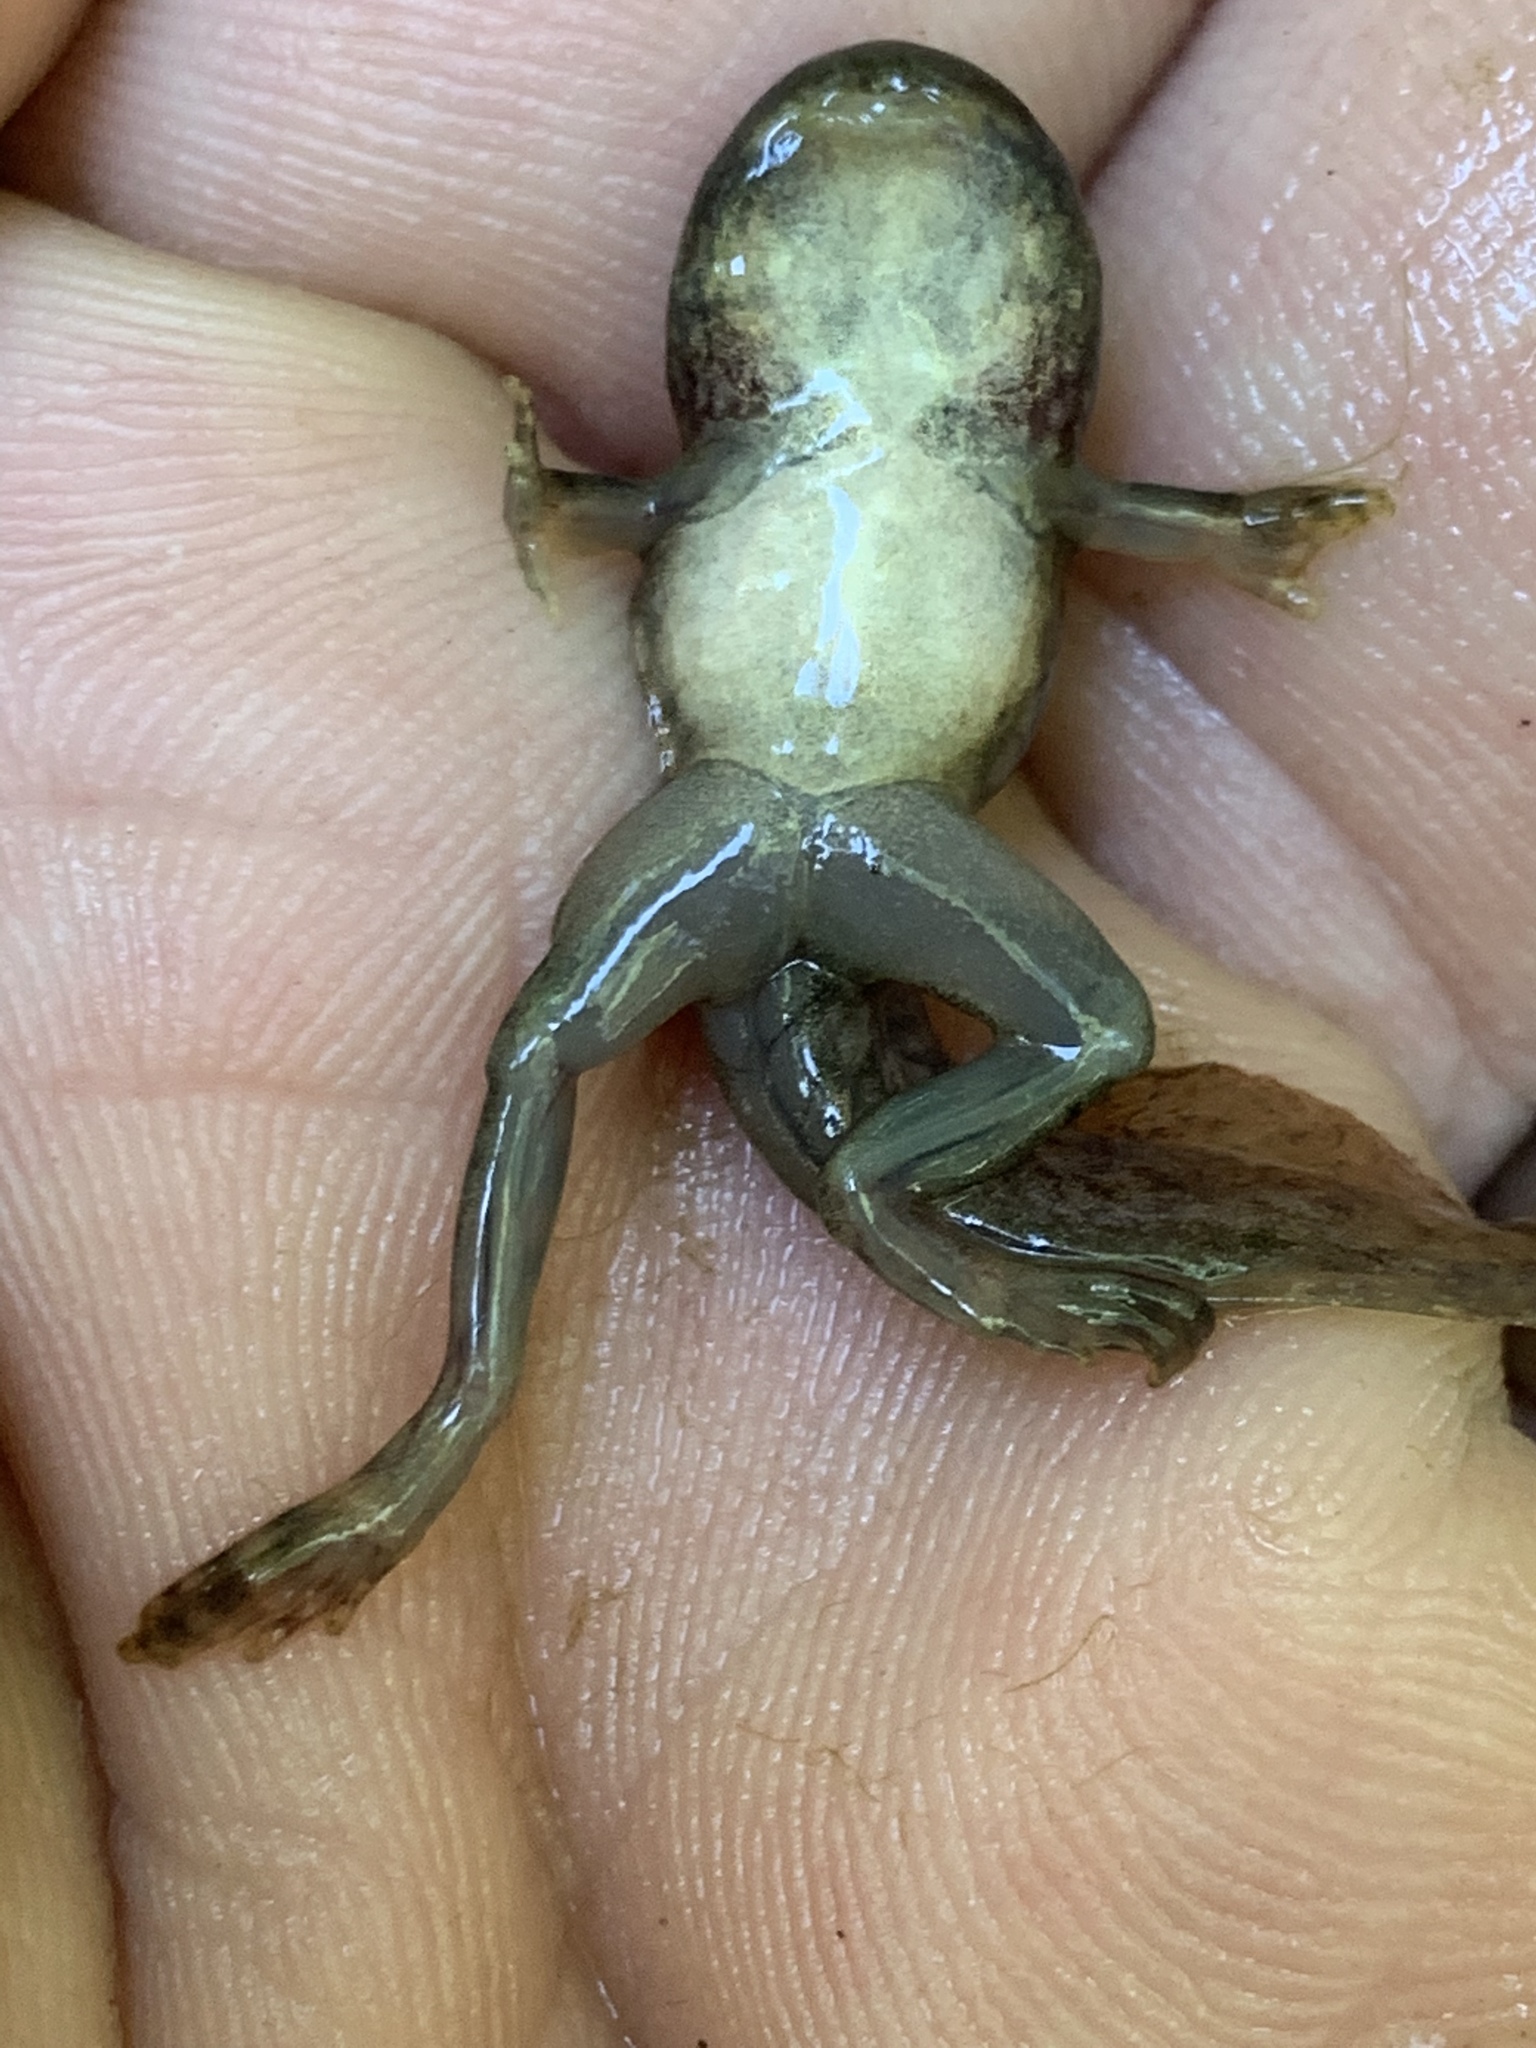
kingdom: Animalia
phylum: Chordata
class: Amphibia
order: Anura
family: Ranidae
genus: Rana
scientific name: Rana boylii
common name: Foothill yellow-legged frog
